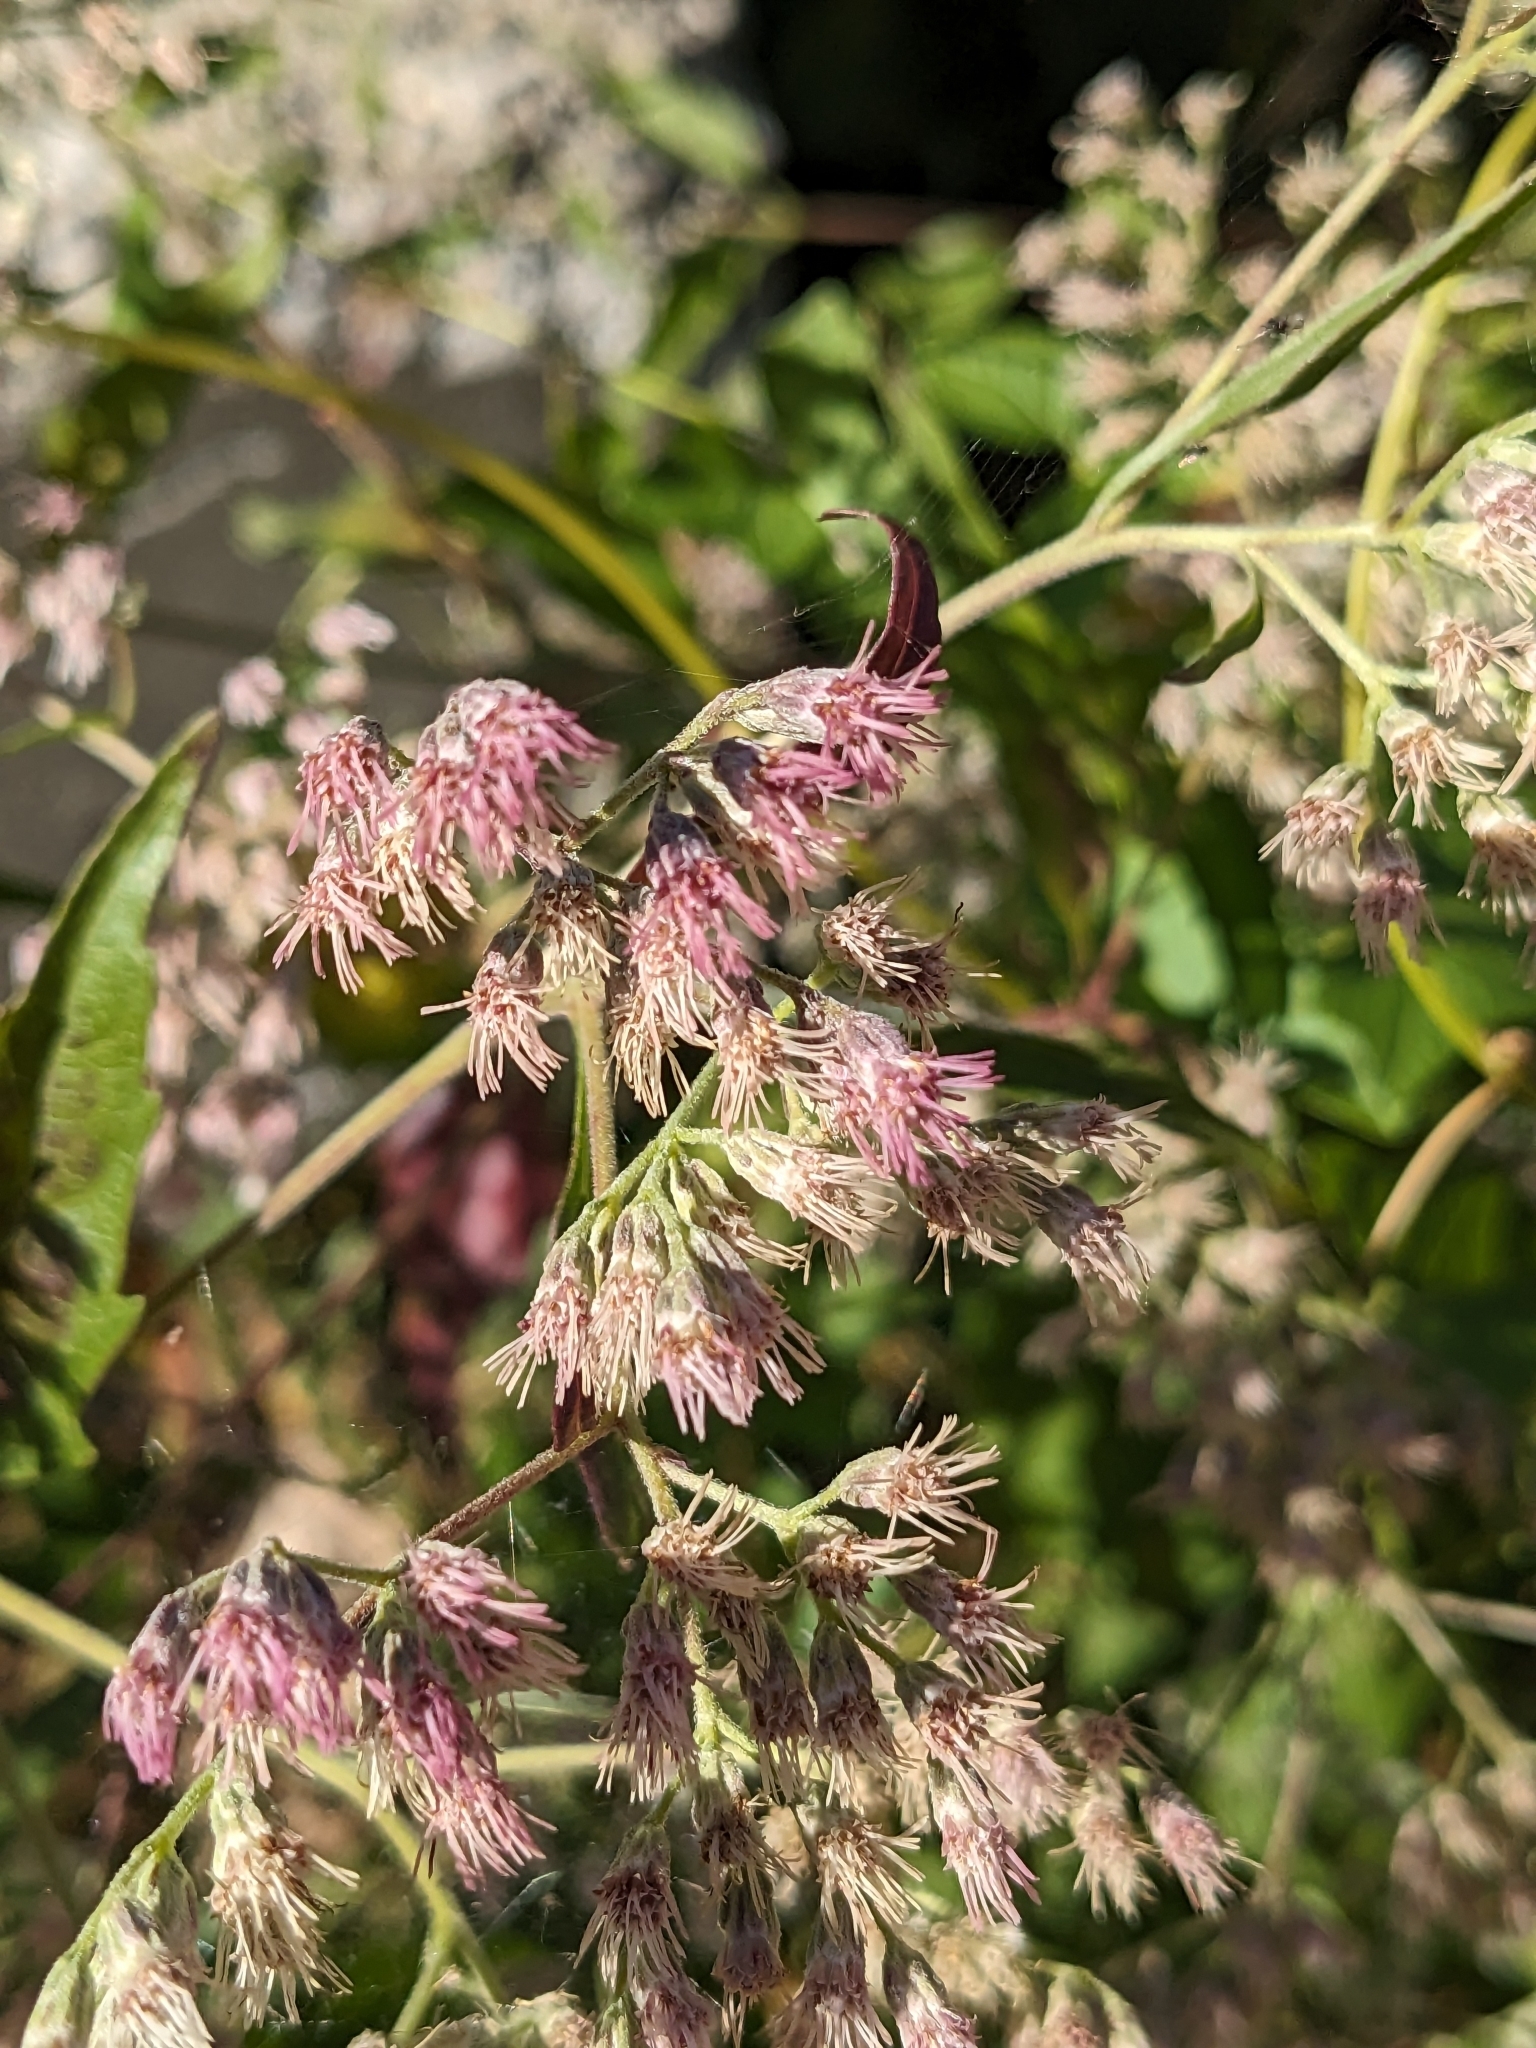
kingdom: Plantae
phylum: Tracheophyta
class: Magnoliopsida
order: Asterales
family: Asteraceae
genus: Eupatorium
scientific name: Eupatorium serotinum
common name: Late boneset
